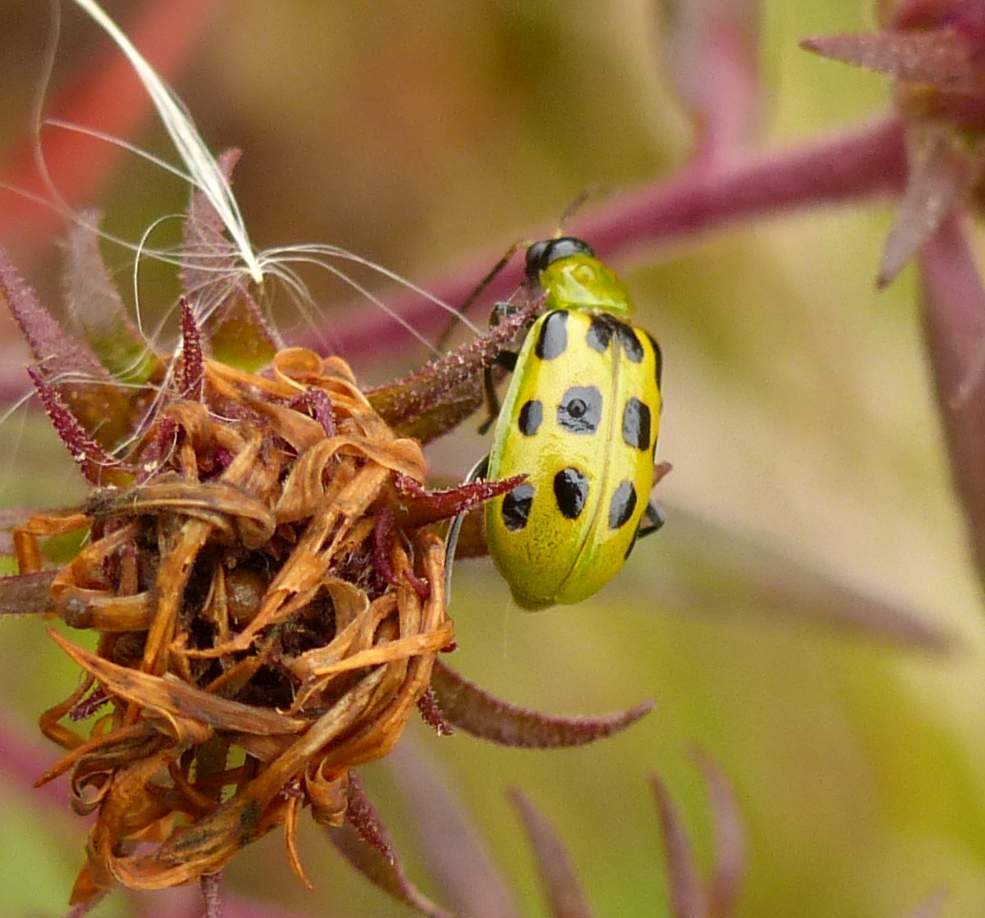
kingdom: Animalia
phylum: Arthropoda
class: Insecta
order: Coleoptera
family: Chrysomelidae
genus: Diabrotica
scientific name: Diabrotica undecimpunctata
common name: Spotted cucumber beetle
